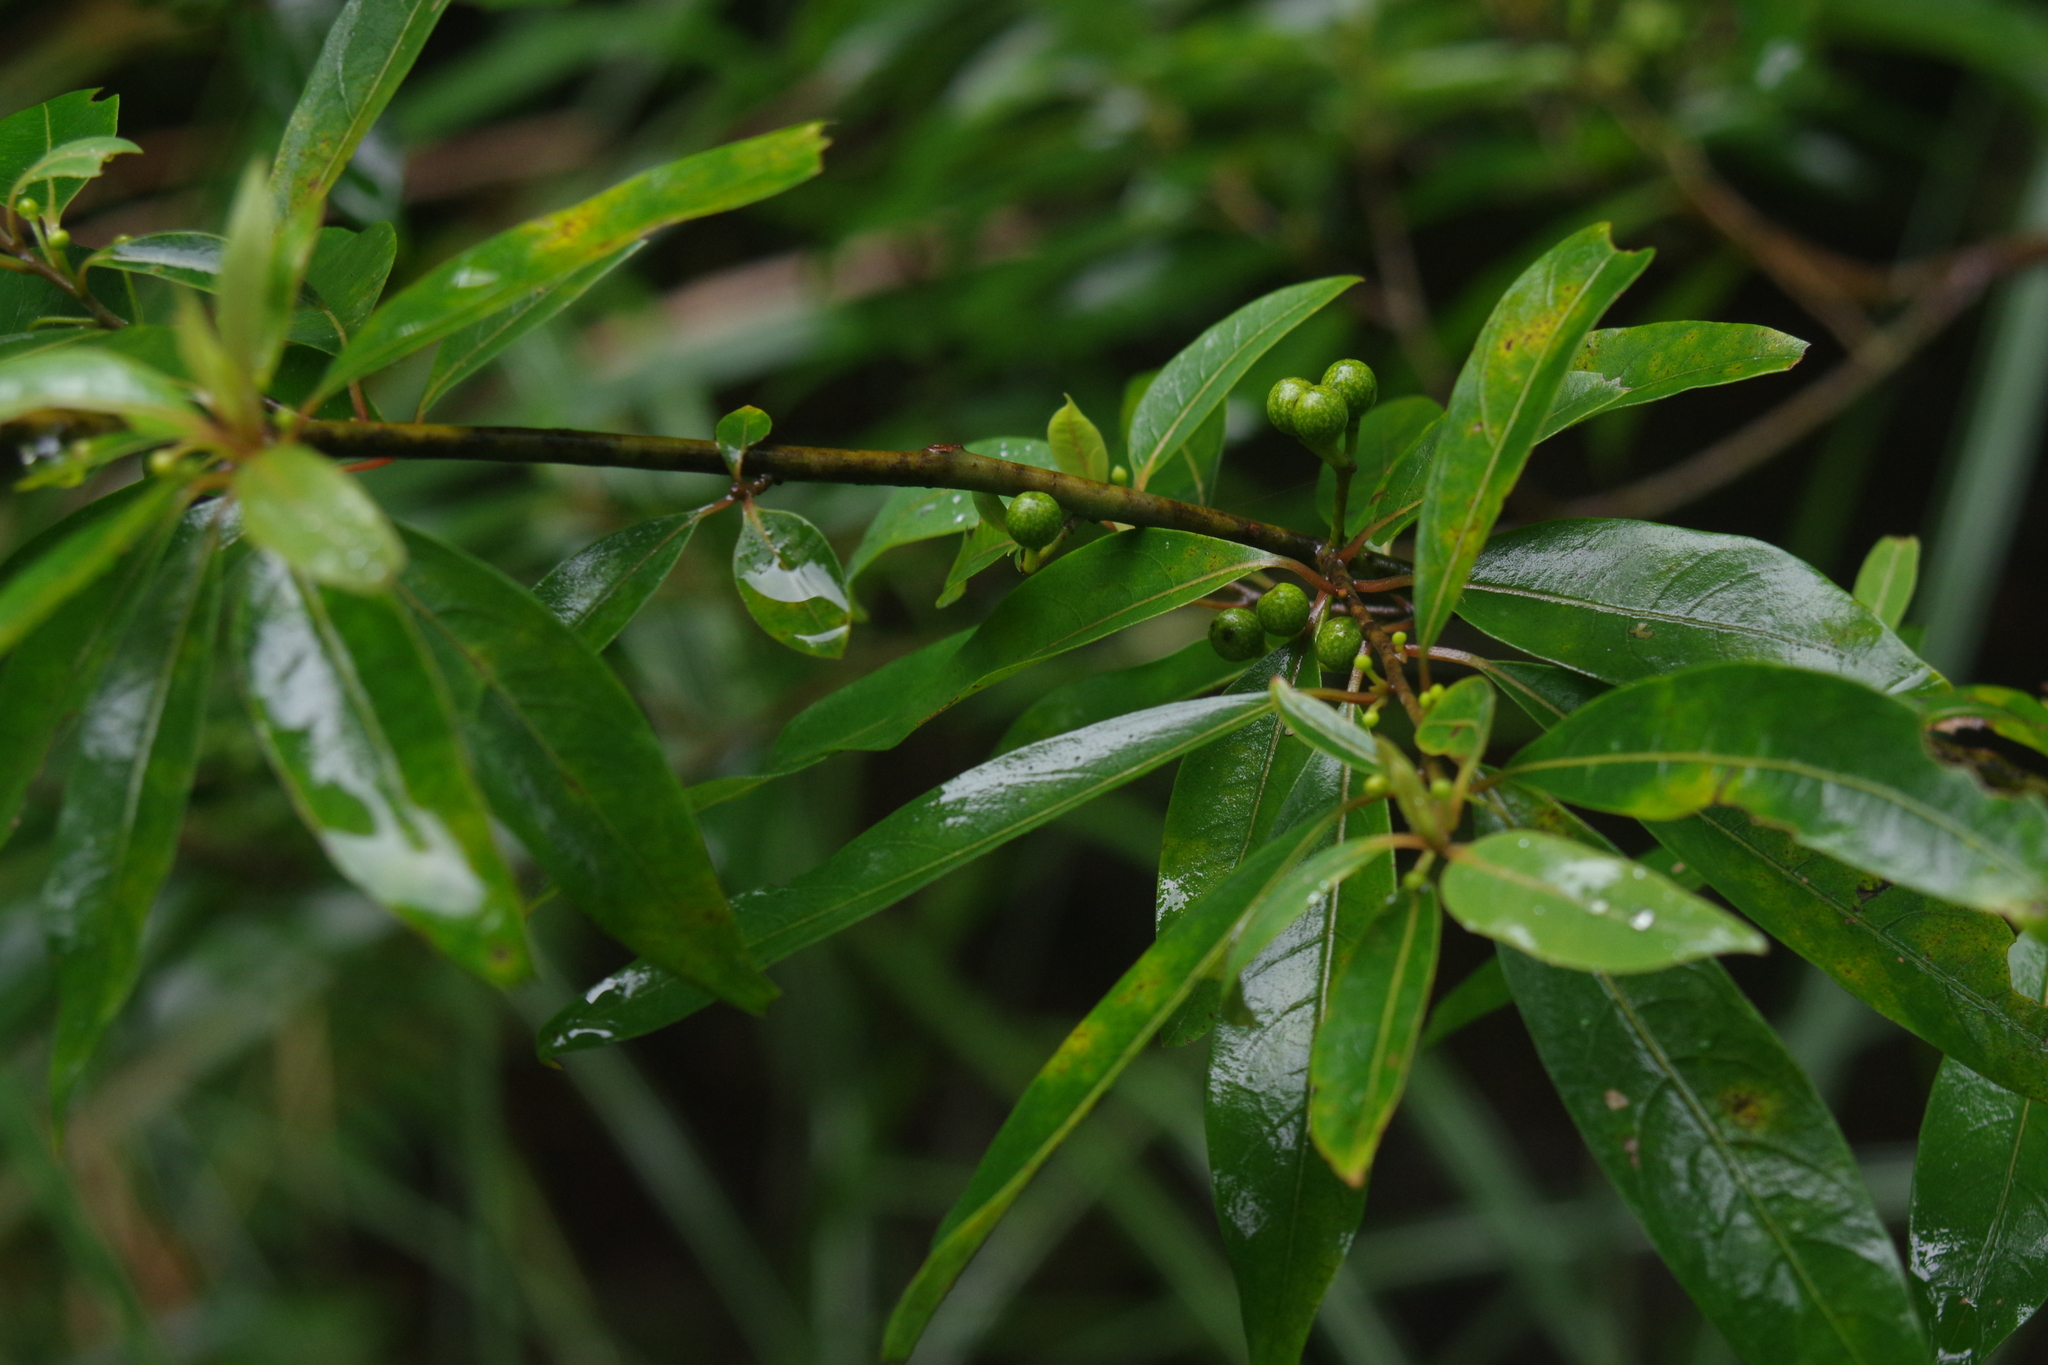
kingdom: Plantae
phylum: Tracheophyta
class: Magnoliopsida
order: Laurales
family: Lauraceae
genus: Litsea
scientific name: Litsea cubeba
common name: Mountain-pepper
